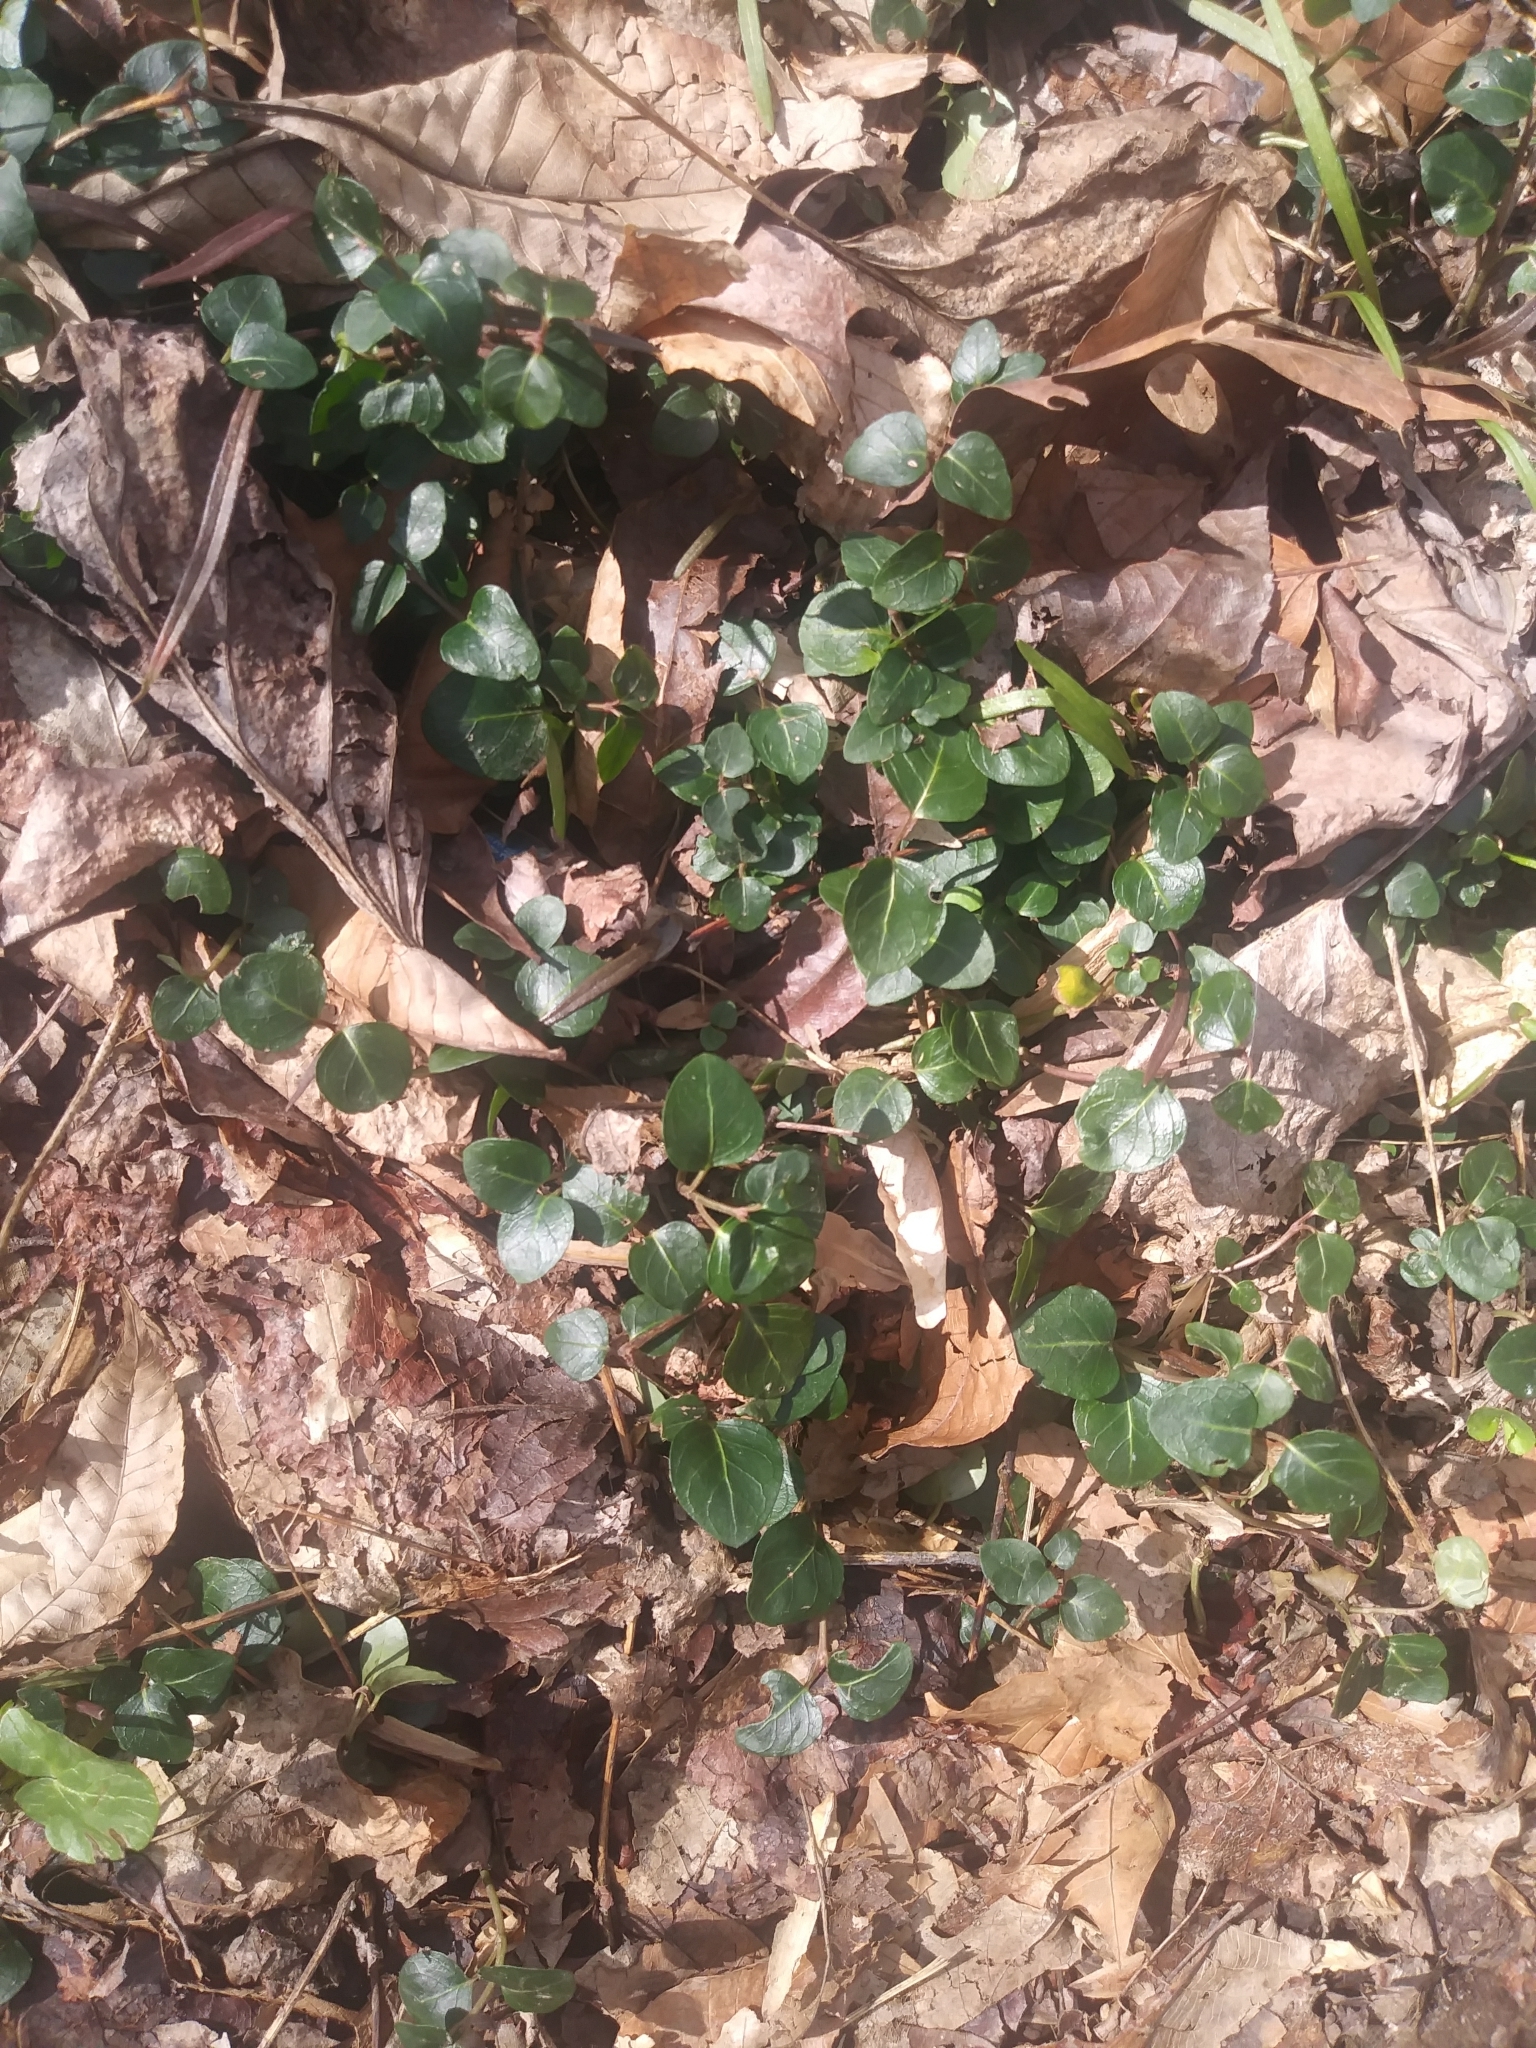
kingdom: Plantae
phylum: Tracheophyta
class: Magnoliopsida
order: Gentianales
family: Rubiaceae
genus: Mitchella
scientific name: Mitchella repens
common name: Partridge-berry
